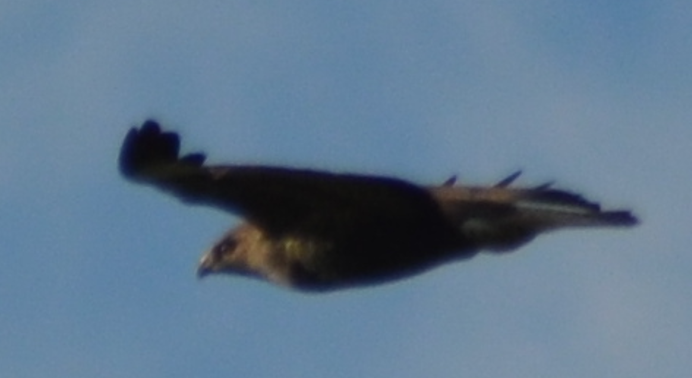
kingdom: Animalia
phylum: Chordata
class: Aves
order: Accipitriformes
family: Accipitridae
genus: Buteo
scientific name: Buteo buteo
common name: Common buzzard
